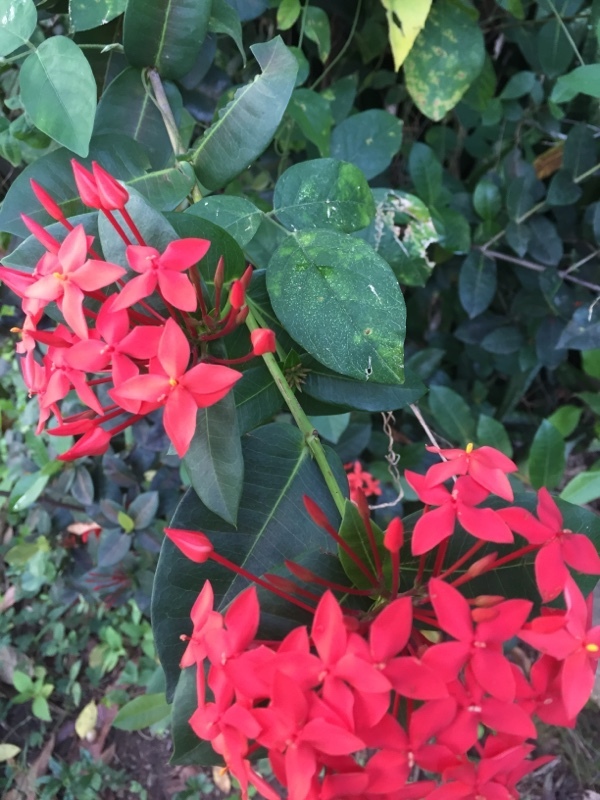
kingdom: Plantae
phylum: Tracheophyta
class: Magnoliopsida
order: Gentianales
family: Rubiaceae
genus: Ixora
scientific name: Ixora coccinea
